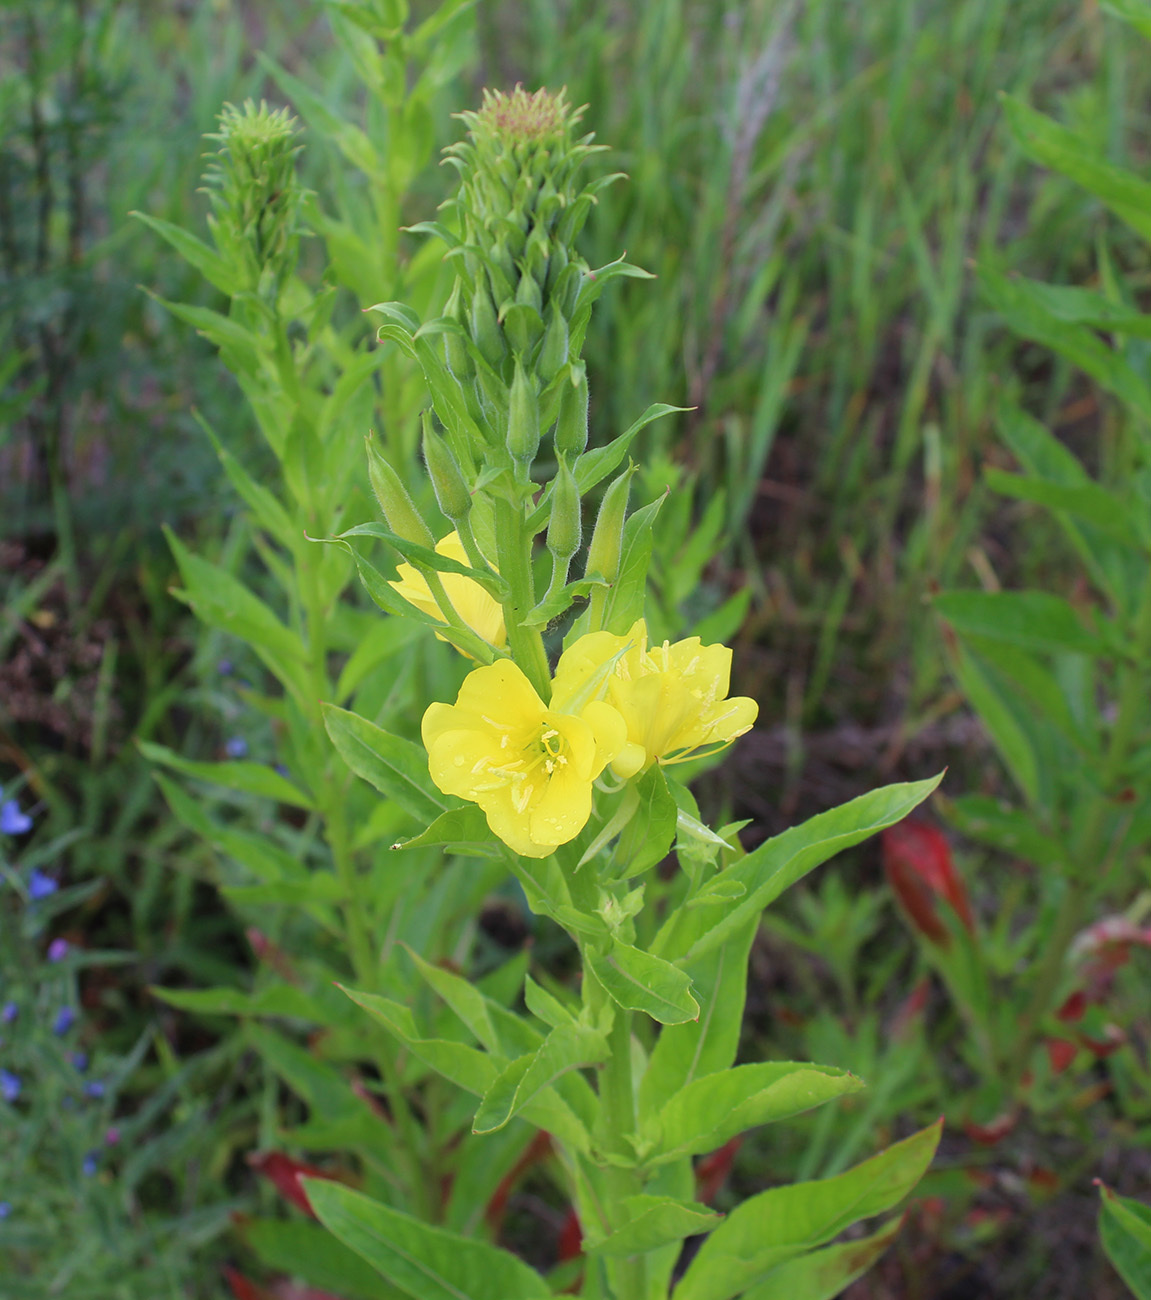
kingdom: Plantae
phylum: Tracheophyta
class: Magnoliopsida
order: Myrtales
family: Onagraceae
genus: Oenothera
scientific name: Oenothera biennis
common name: Common evening-primrose
